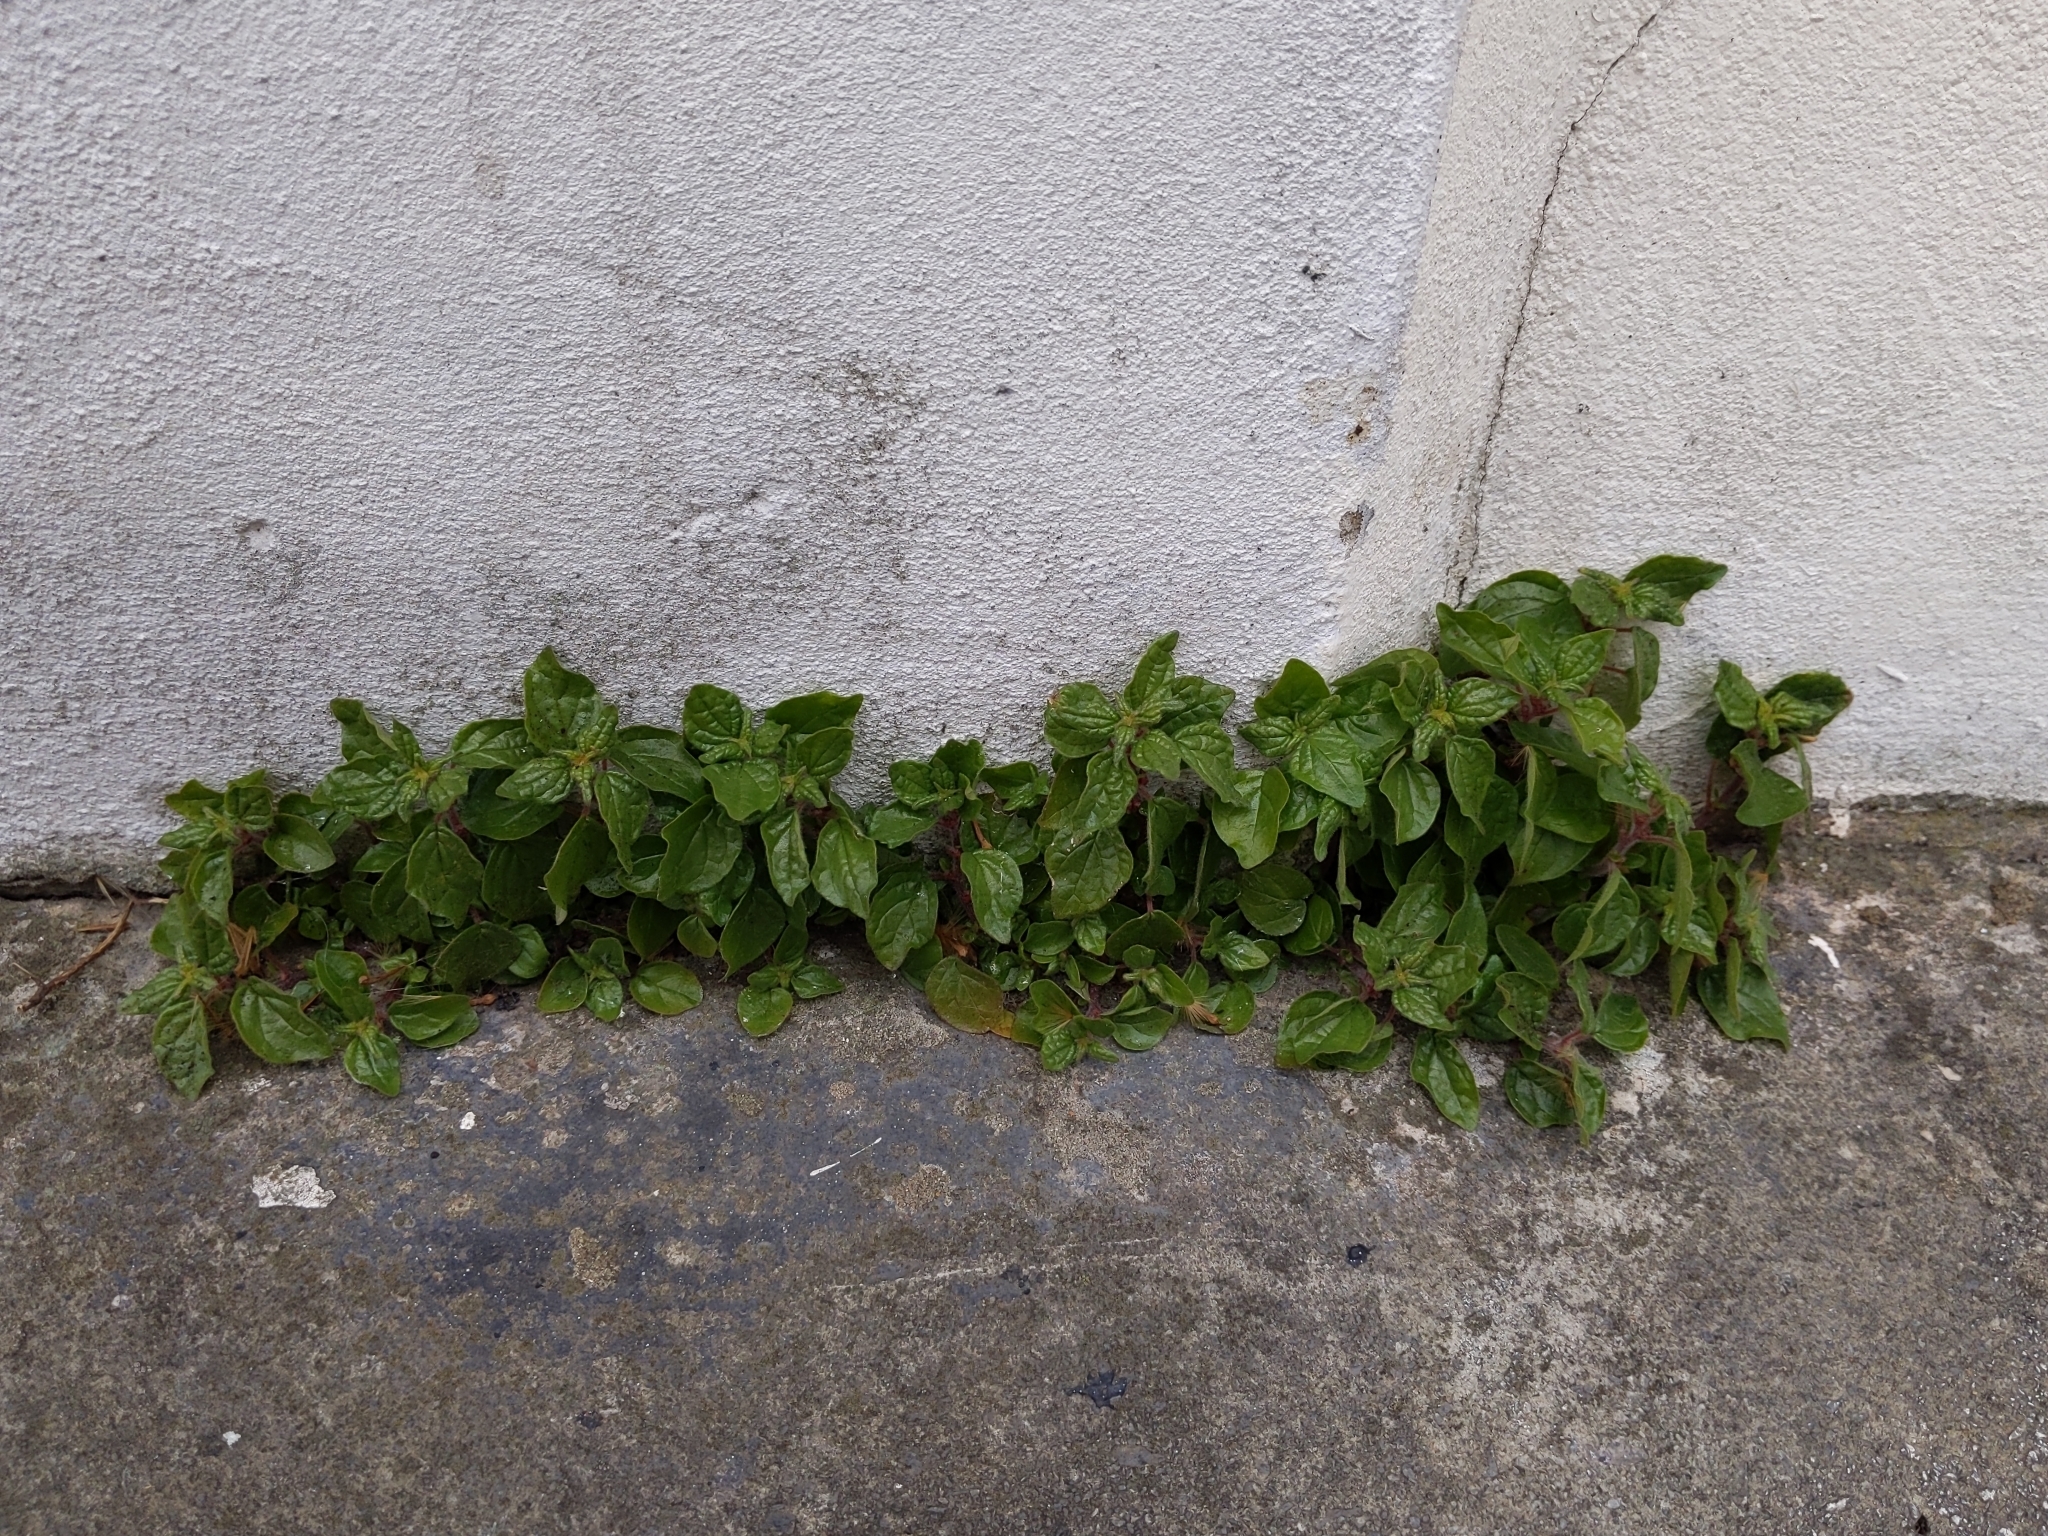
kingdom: Plantae
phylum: Tracheophyta
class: Magnoliopsida
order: Rosales
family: Urticaceae
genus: Parietaria
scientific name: Parietaria judaica
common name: Pellitory-of-the-wall
